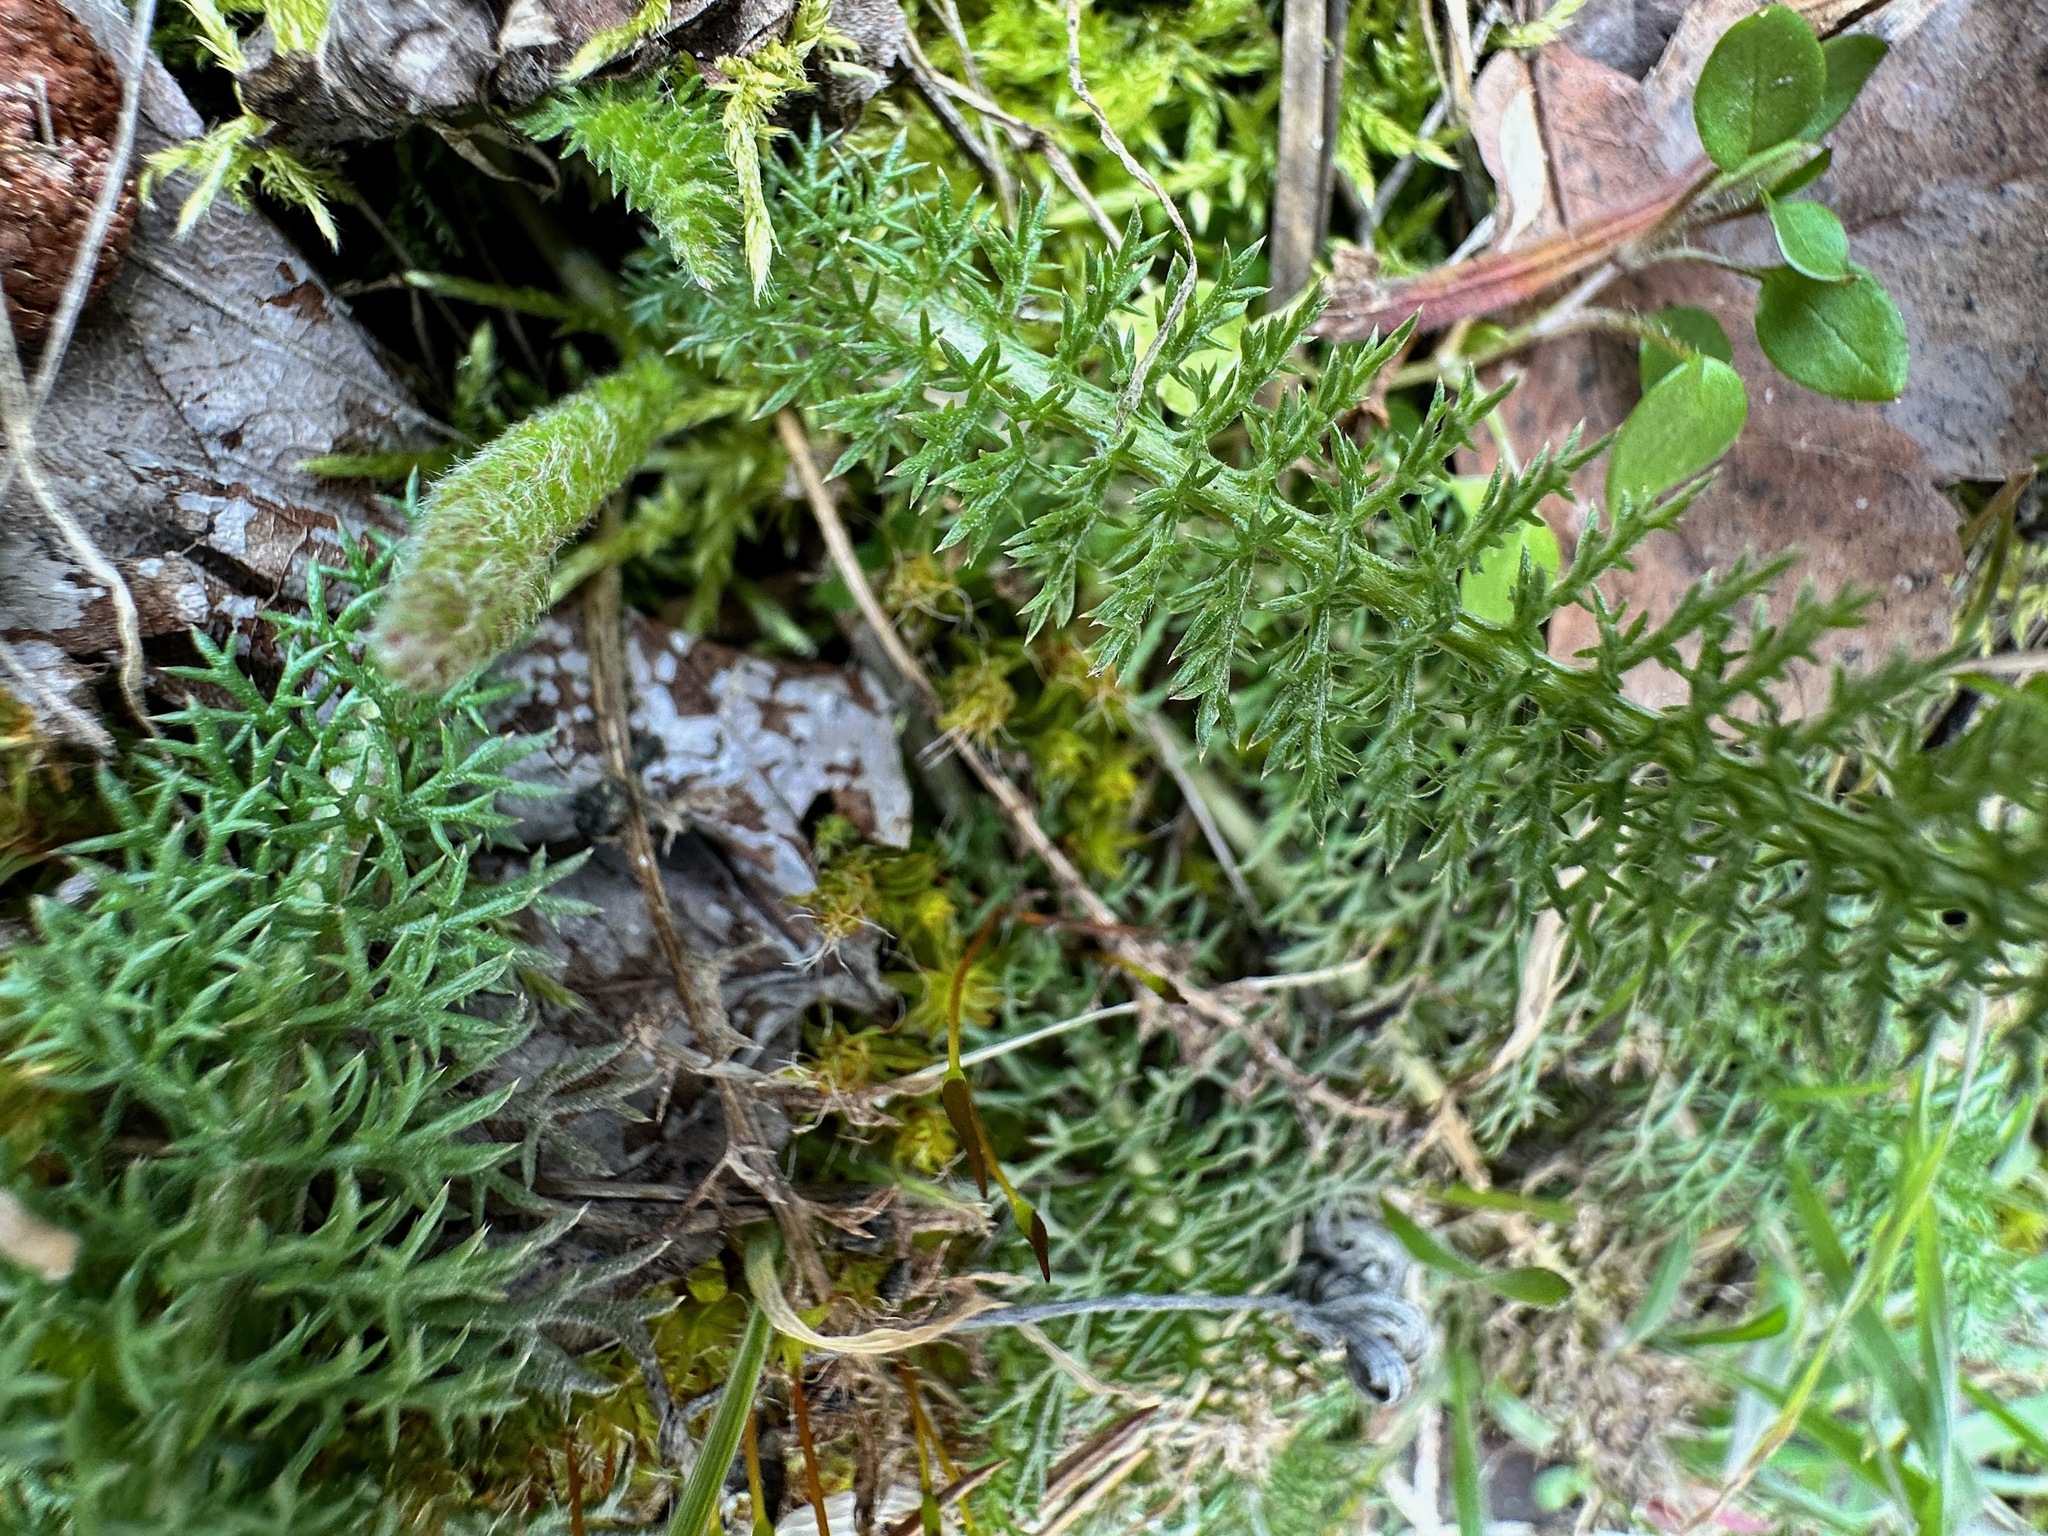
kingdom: Plantae
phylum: Tracheophyta
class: Magnoliopsida
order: Asterales
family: Asteraceae
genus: Achillea
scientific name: Achillea millefolium
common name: Yarrow
